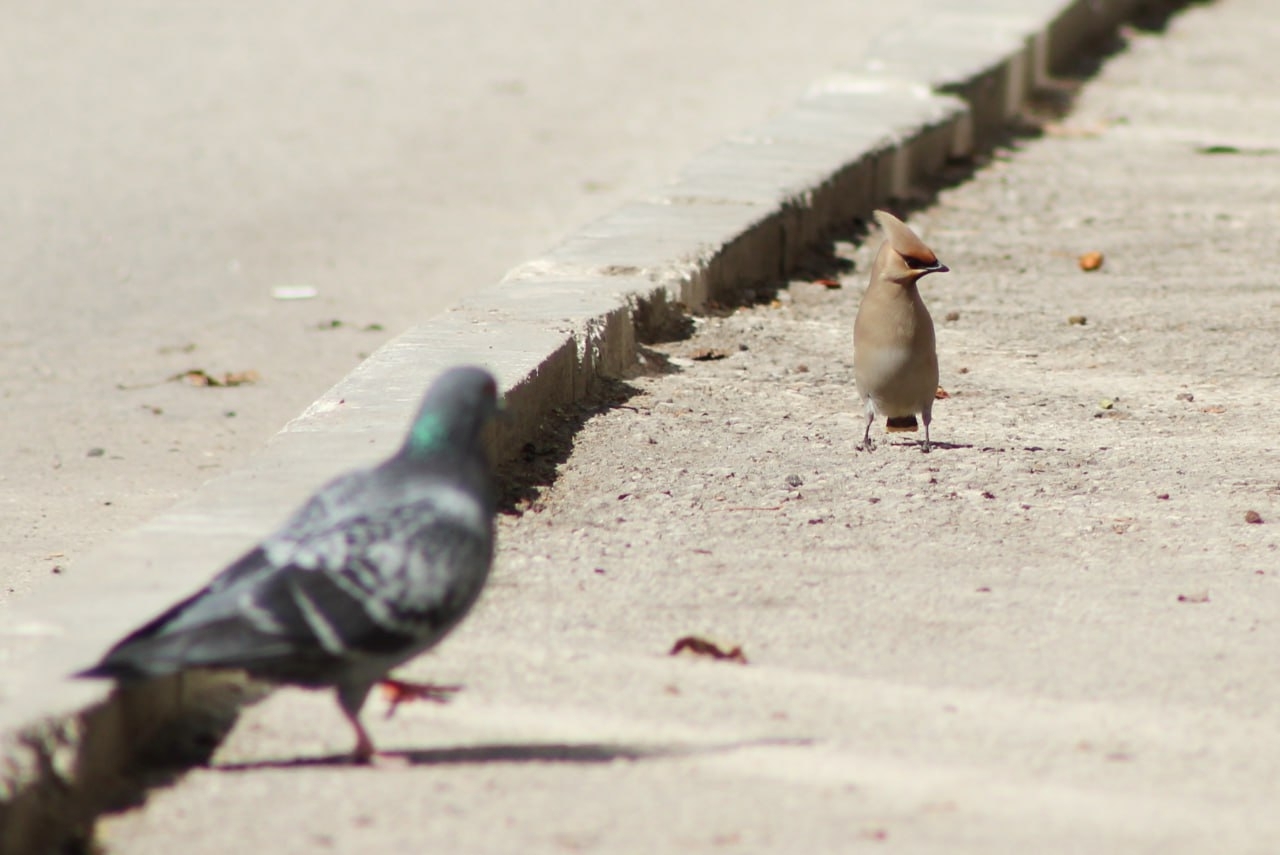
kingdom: Animalia
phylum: Chordata
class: Aves
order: Passeriformes
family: Bombycillidae
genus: Bombycilla
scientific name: Bombycilla garrulus
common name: Bohemian waxwing
